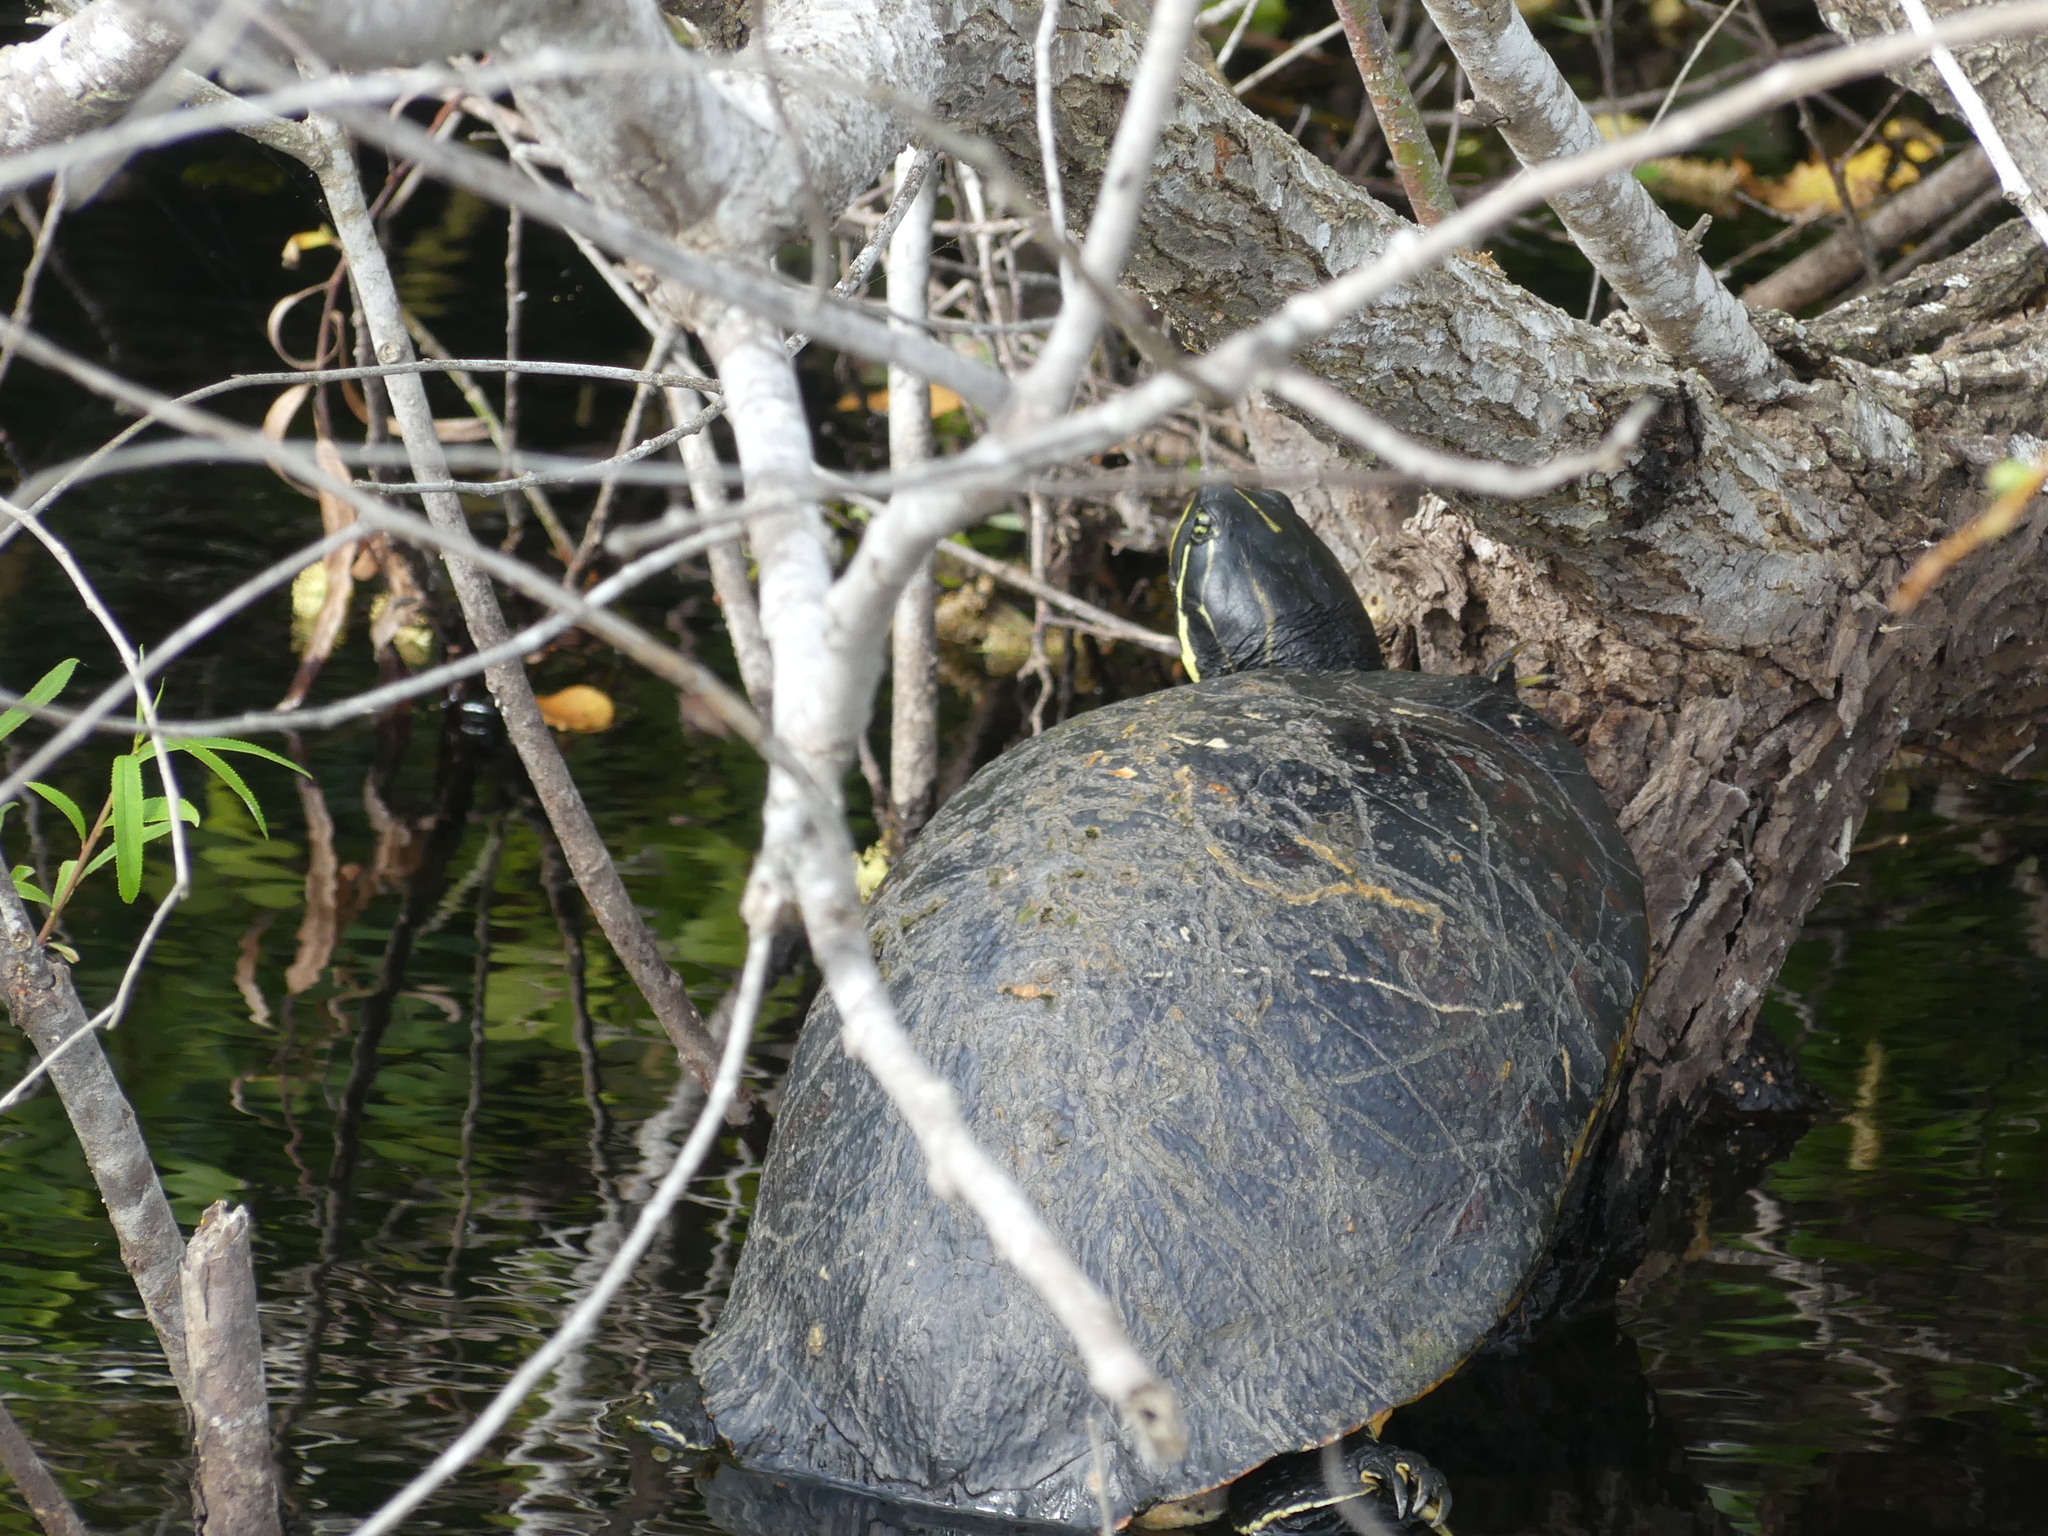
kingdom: Animalia
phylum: Chordata
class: Testudines
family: Emydidae
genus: Pseudemys
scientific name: Pseudemys nelsoni
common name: Florida red-bellied turtle
